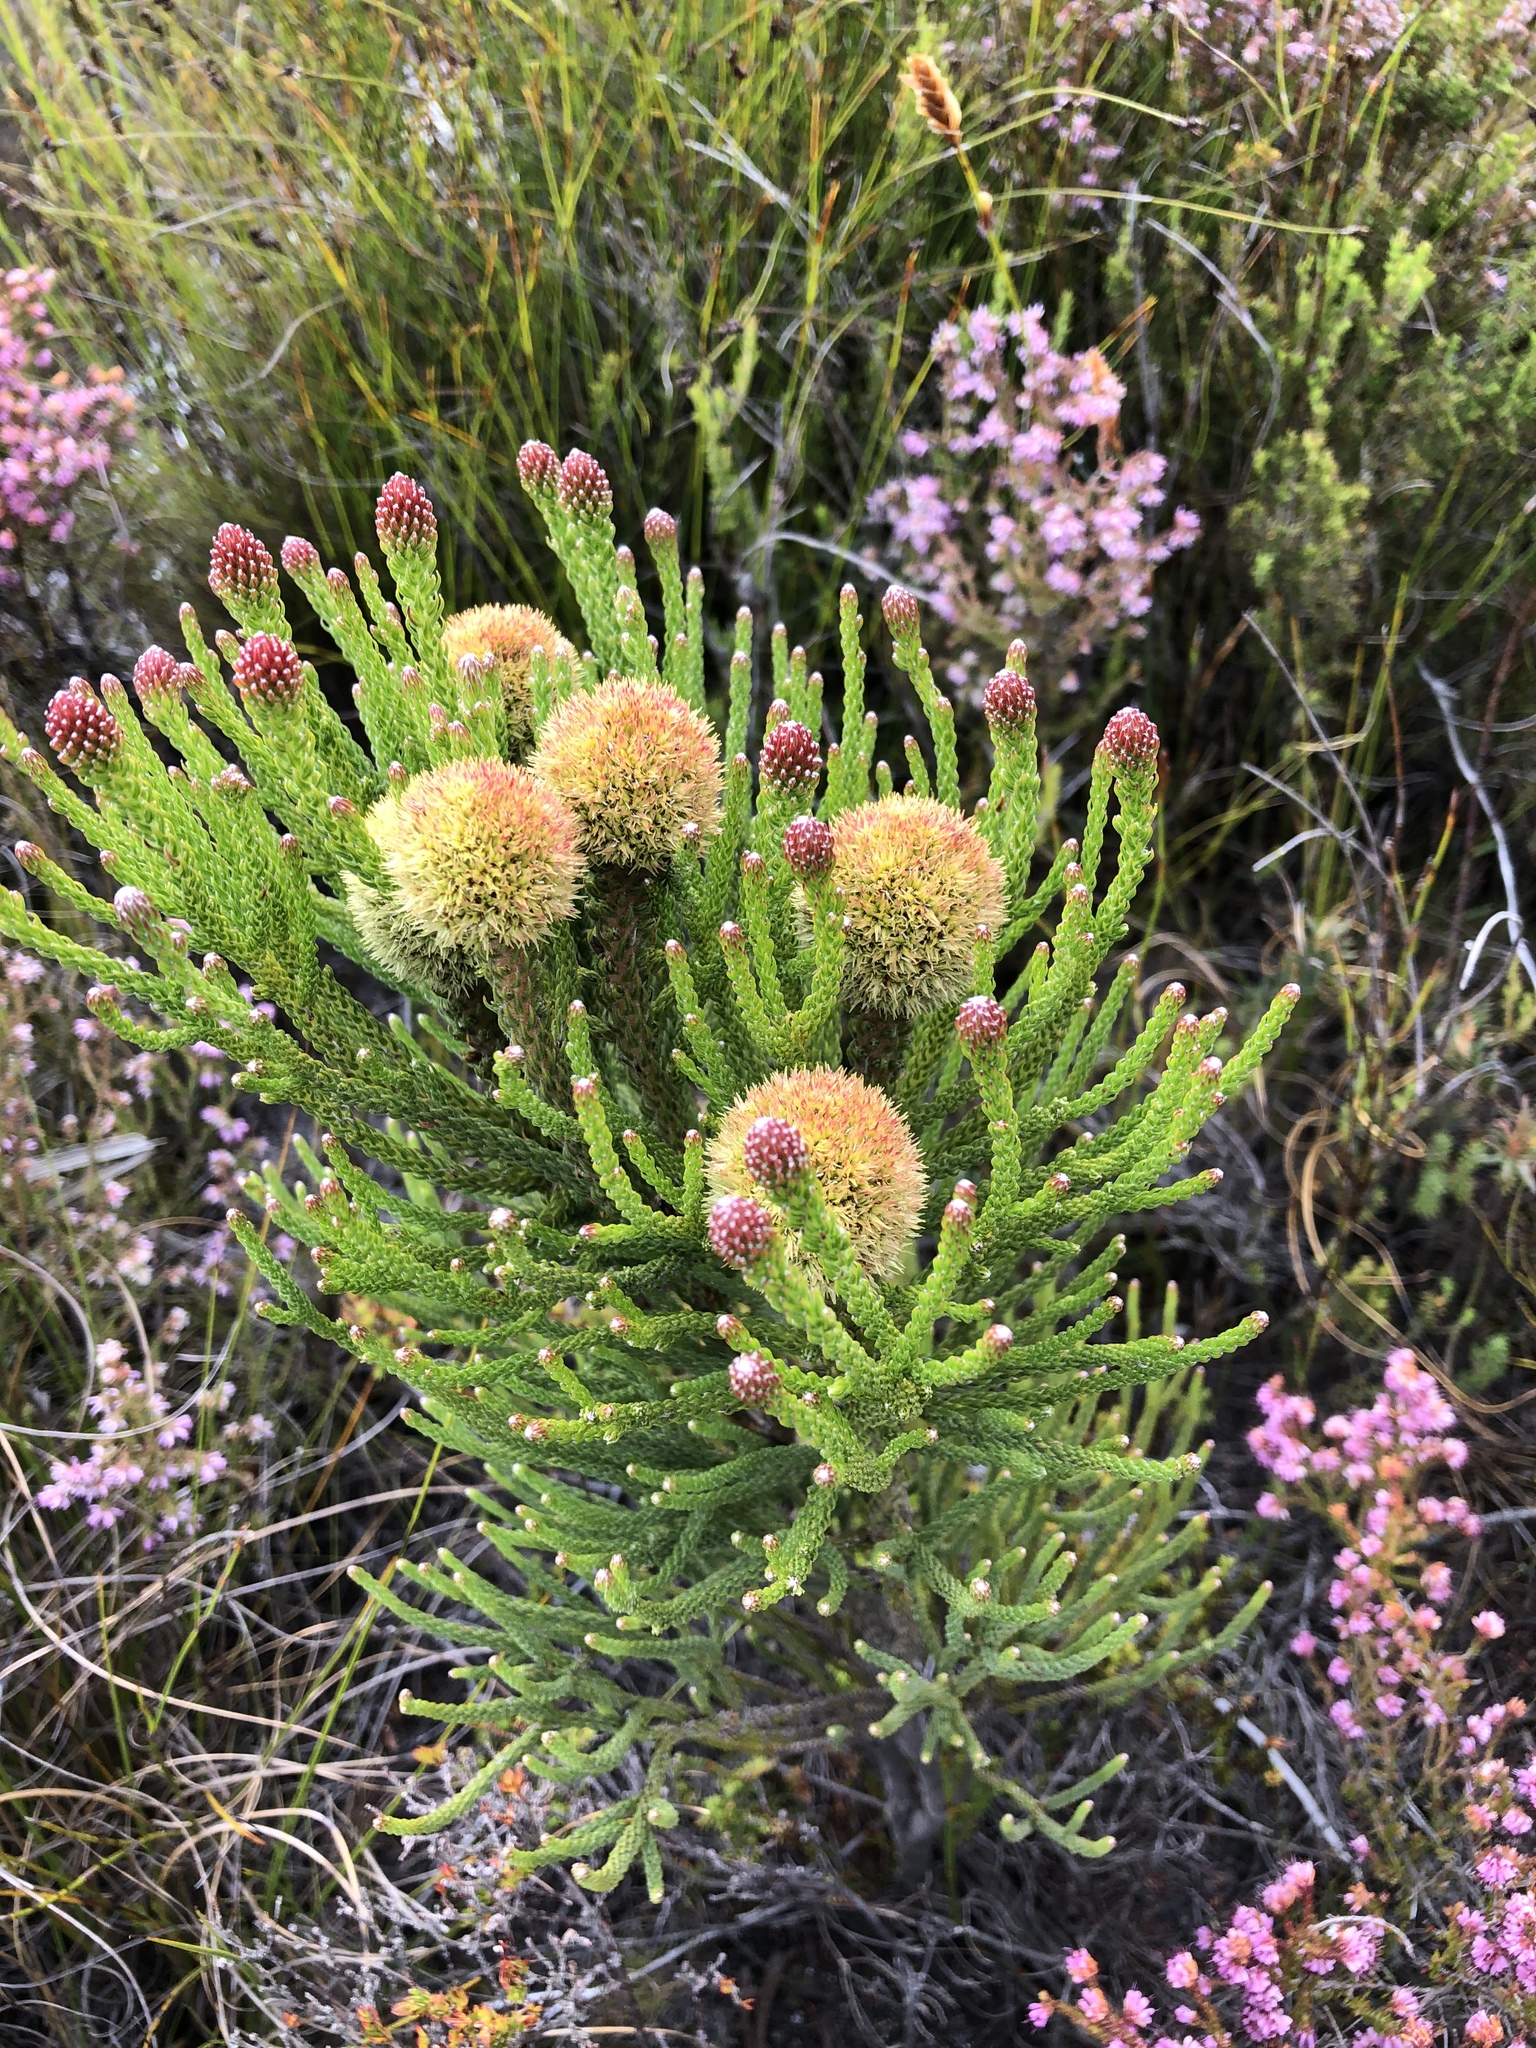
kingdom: Plantae
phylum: Tracheophyta
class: Magnoliopsida
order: Bruniales
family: Bruniaceae
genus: Brunia
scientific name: Brunia fragarioides
